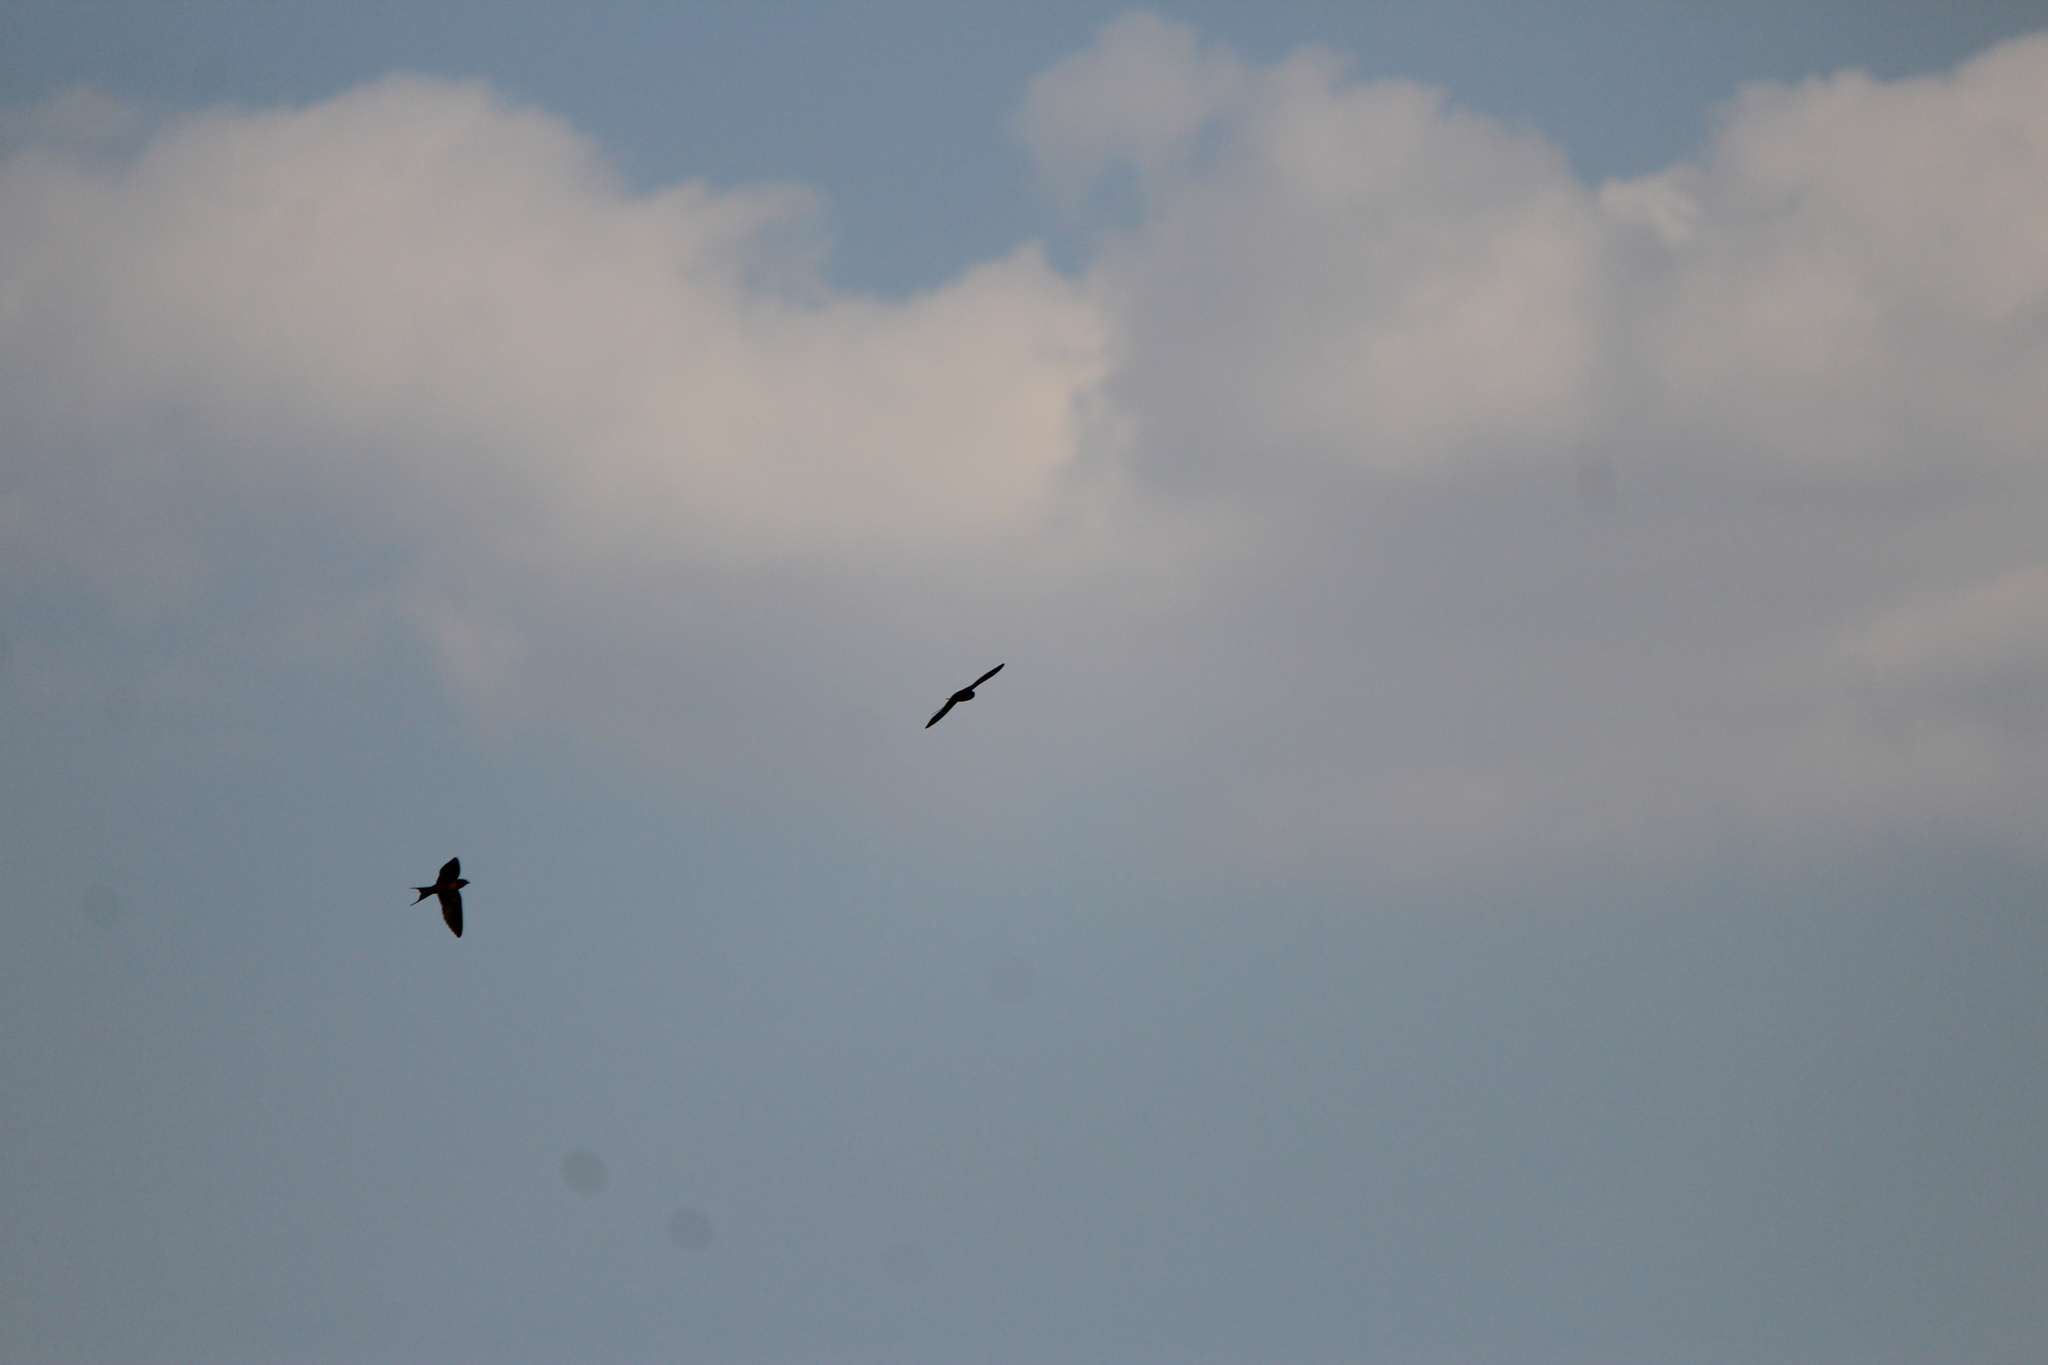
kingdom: Animalia
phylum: Chordata
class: Aves
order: Passeriformes
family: Hirundinidae
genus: Hirundo
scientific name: Hirundo rustica
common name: Barn swallow
